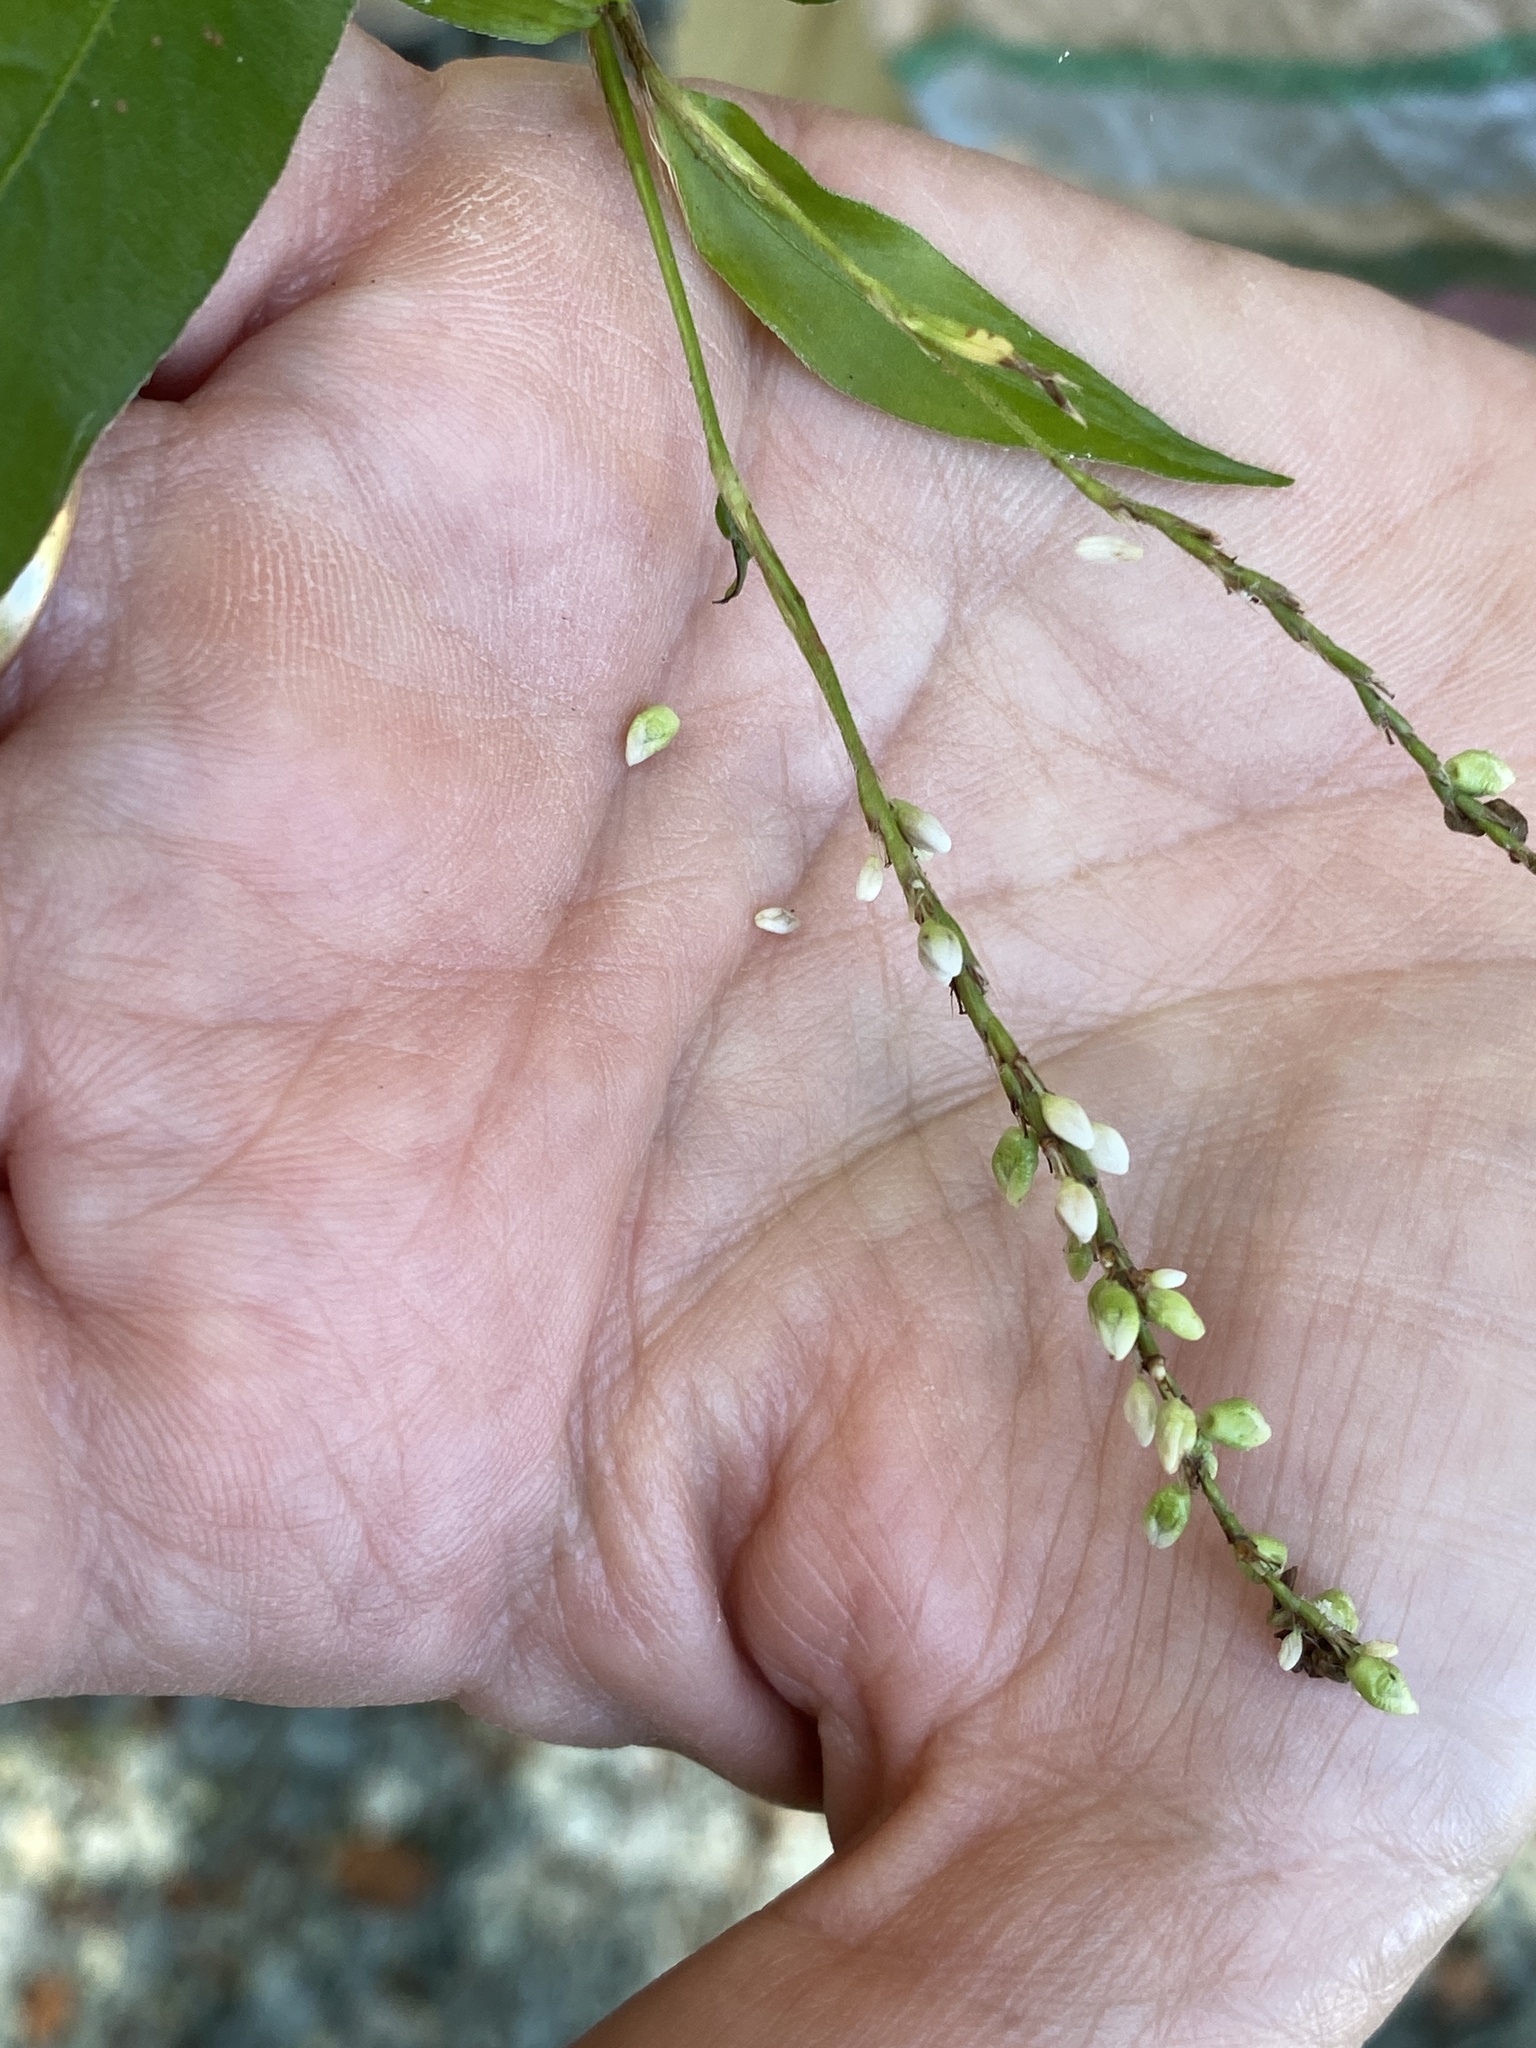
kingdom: Plantae
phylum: Tracheophyta
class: Magnoliopsida
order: Caryophyllales
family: Polygonaceae
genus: Persicaria
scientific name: Persicaria setacea
